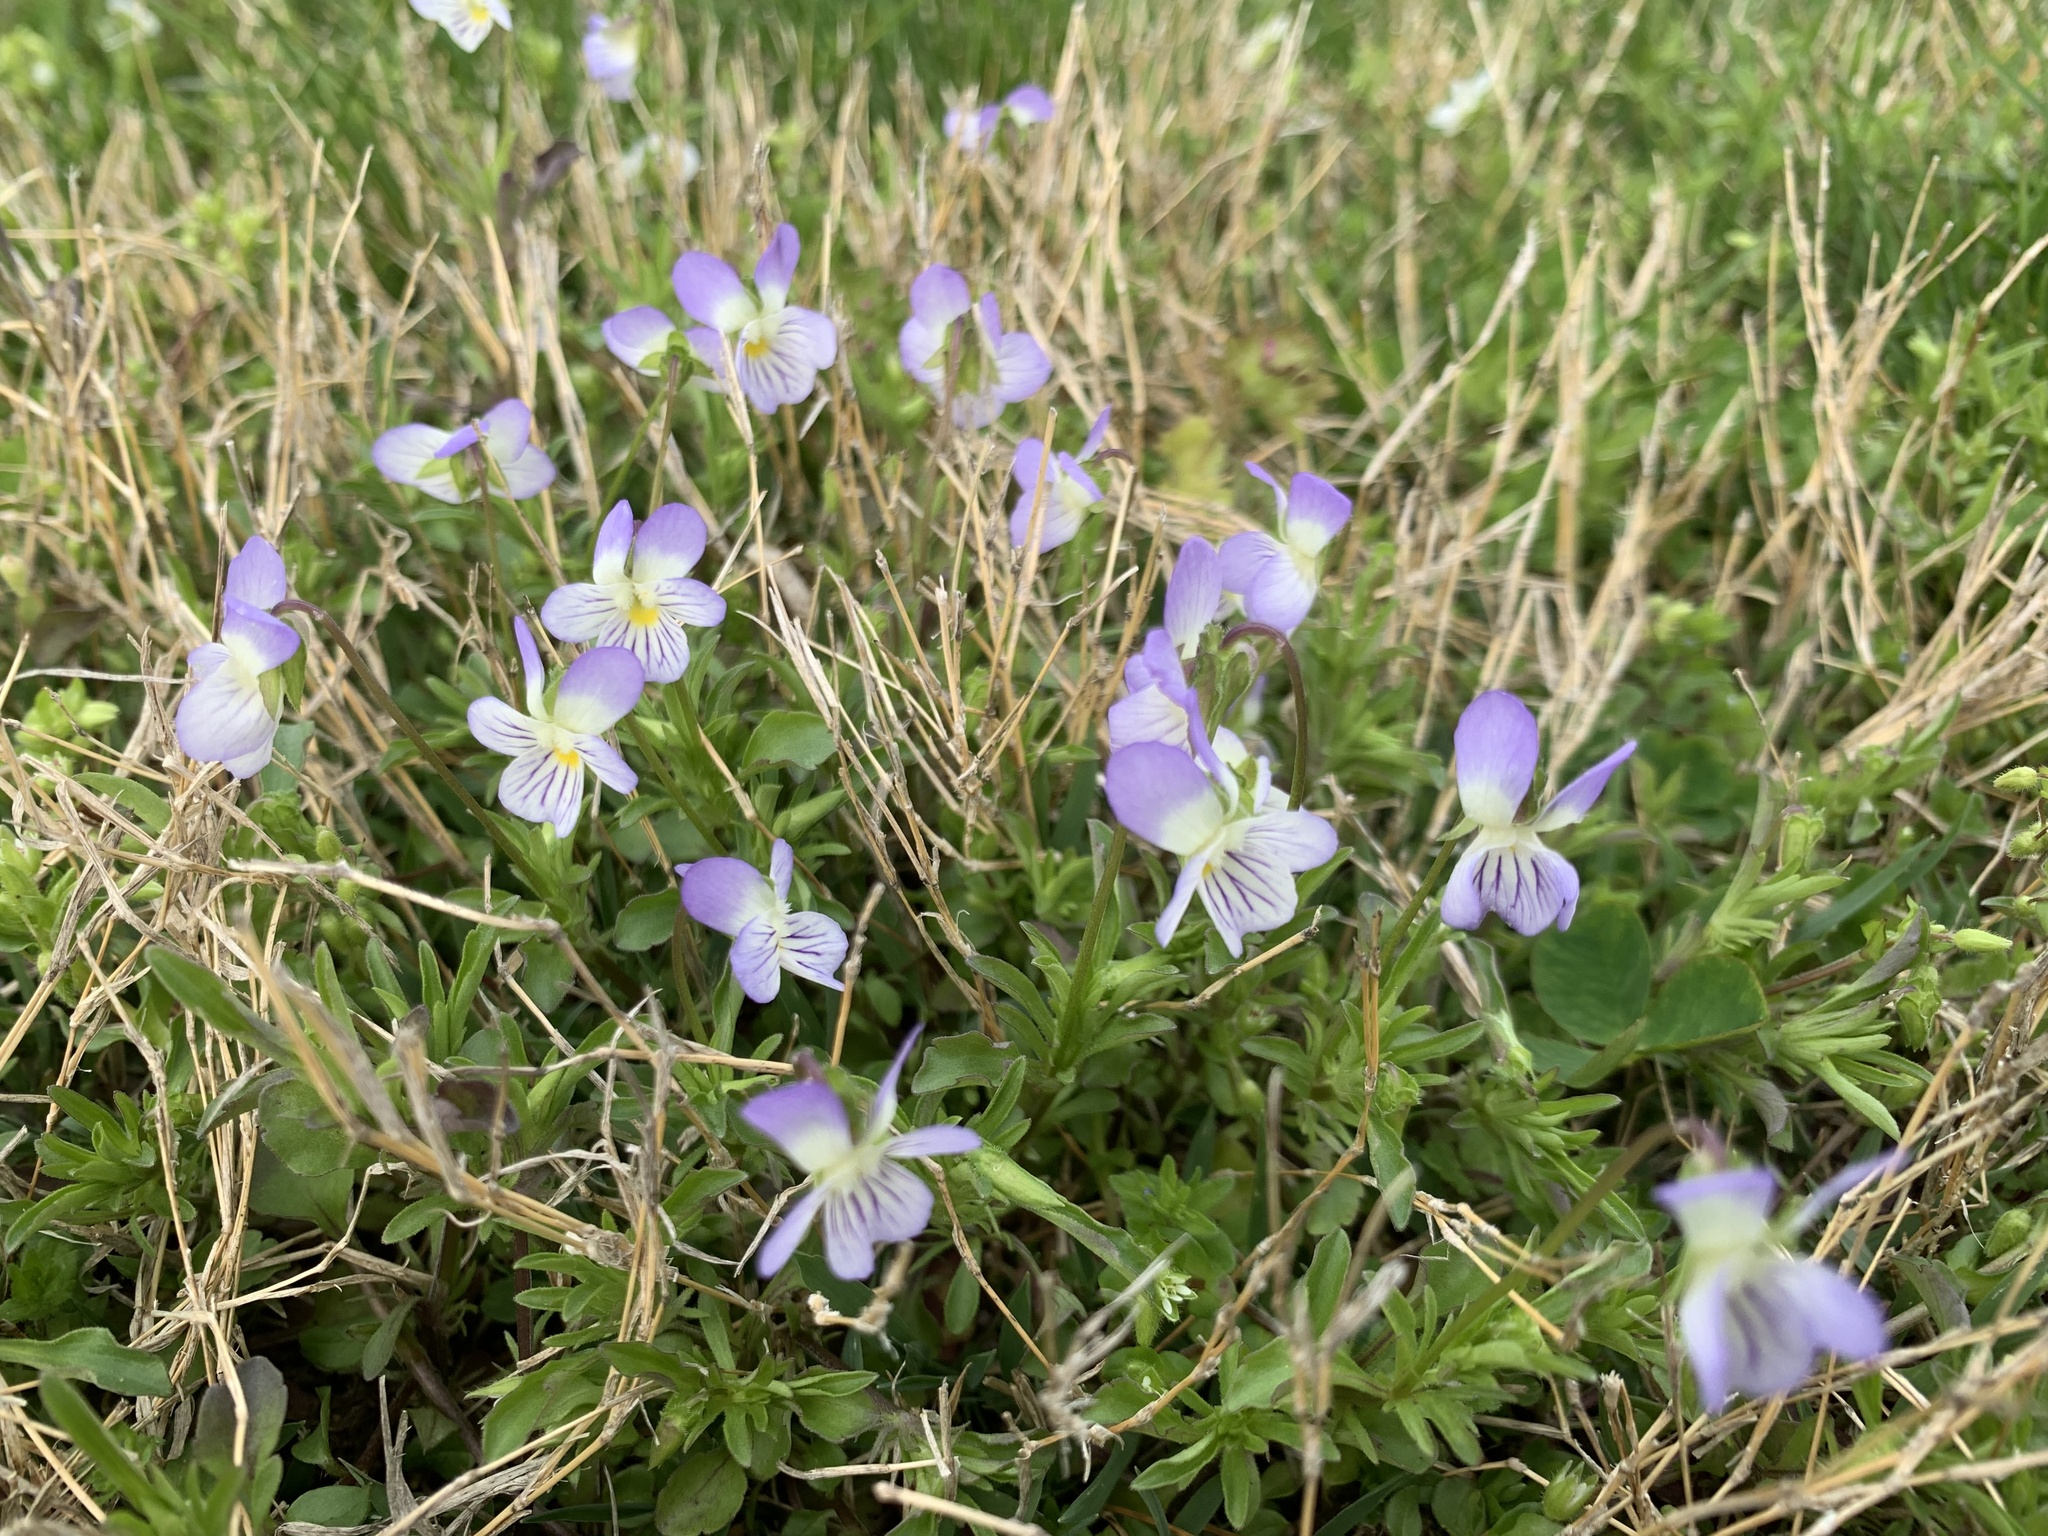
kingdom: Plantae
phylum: Tracheophyta
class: Magnoliopsida
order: Malpighiales
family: Violaceae
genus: Viola
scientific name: Viola rafinesquei
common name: American field pansy
